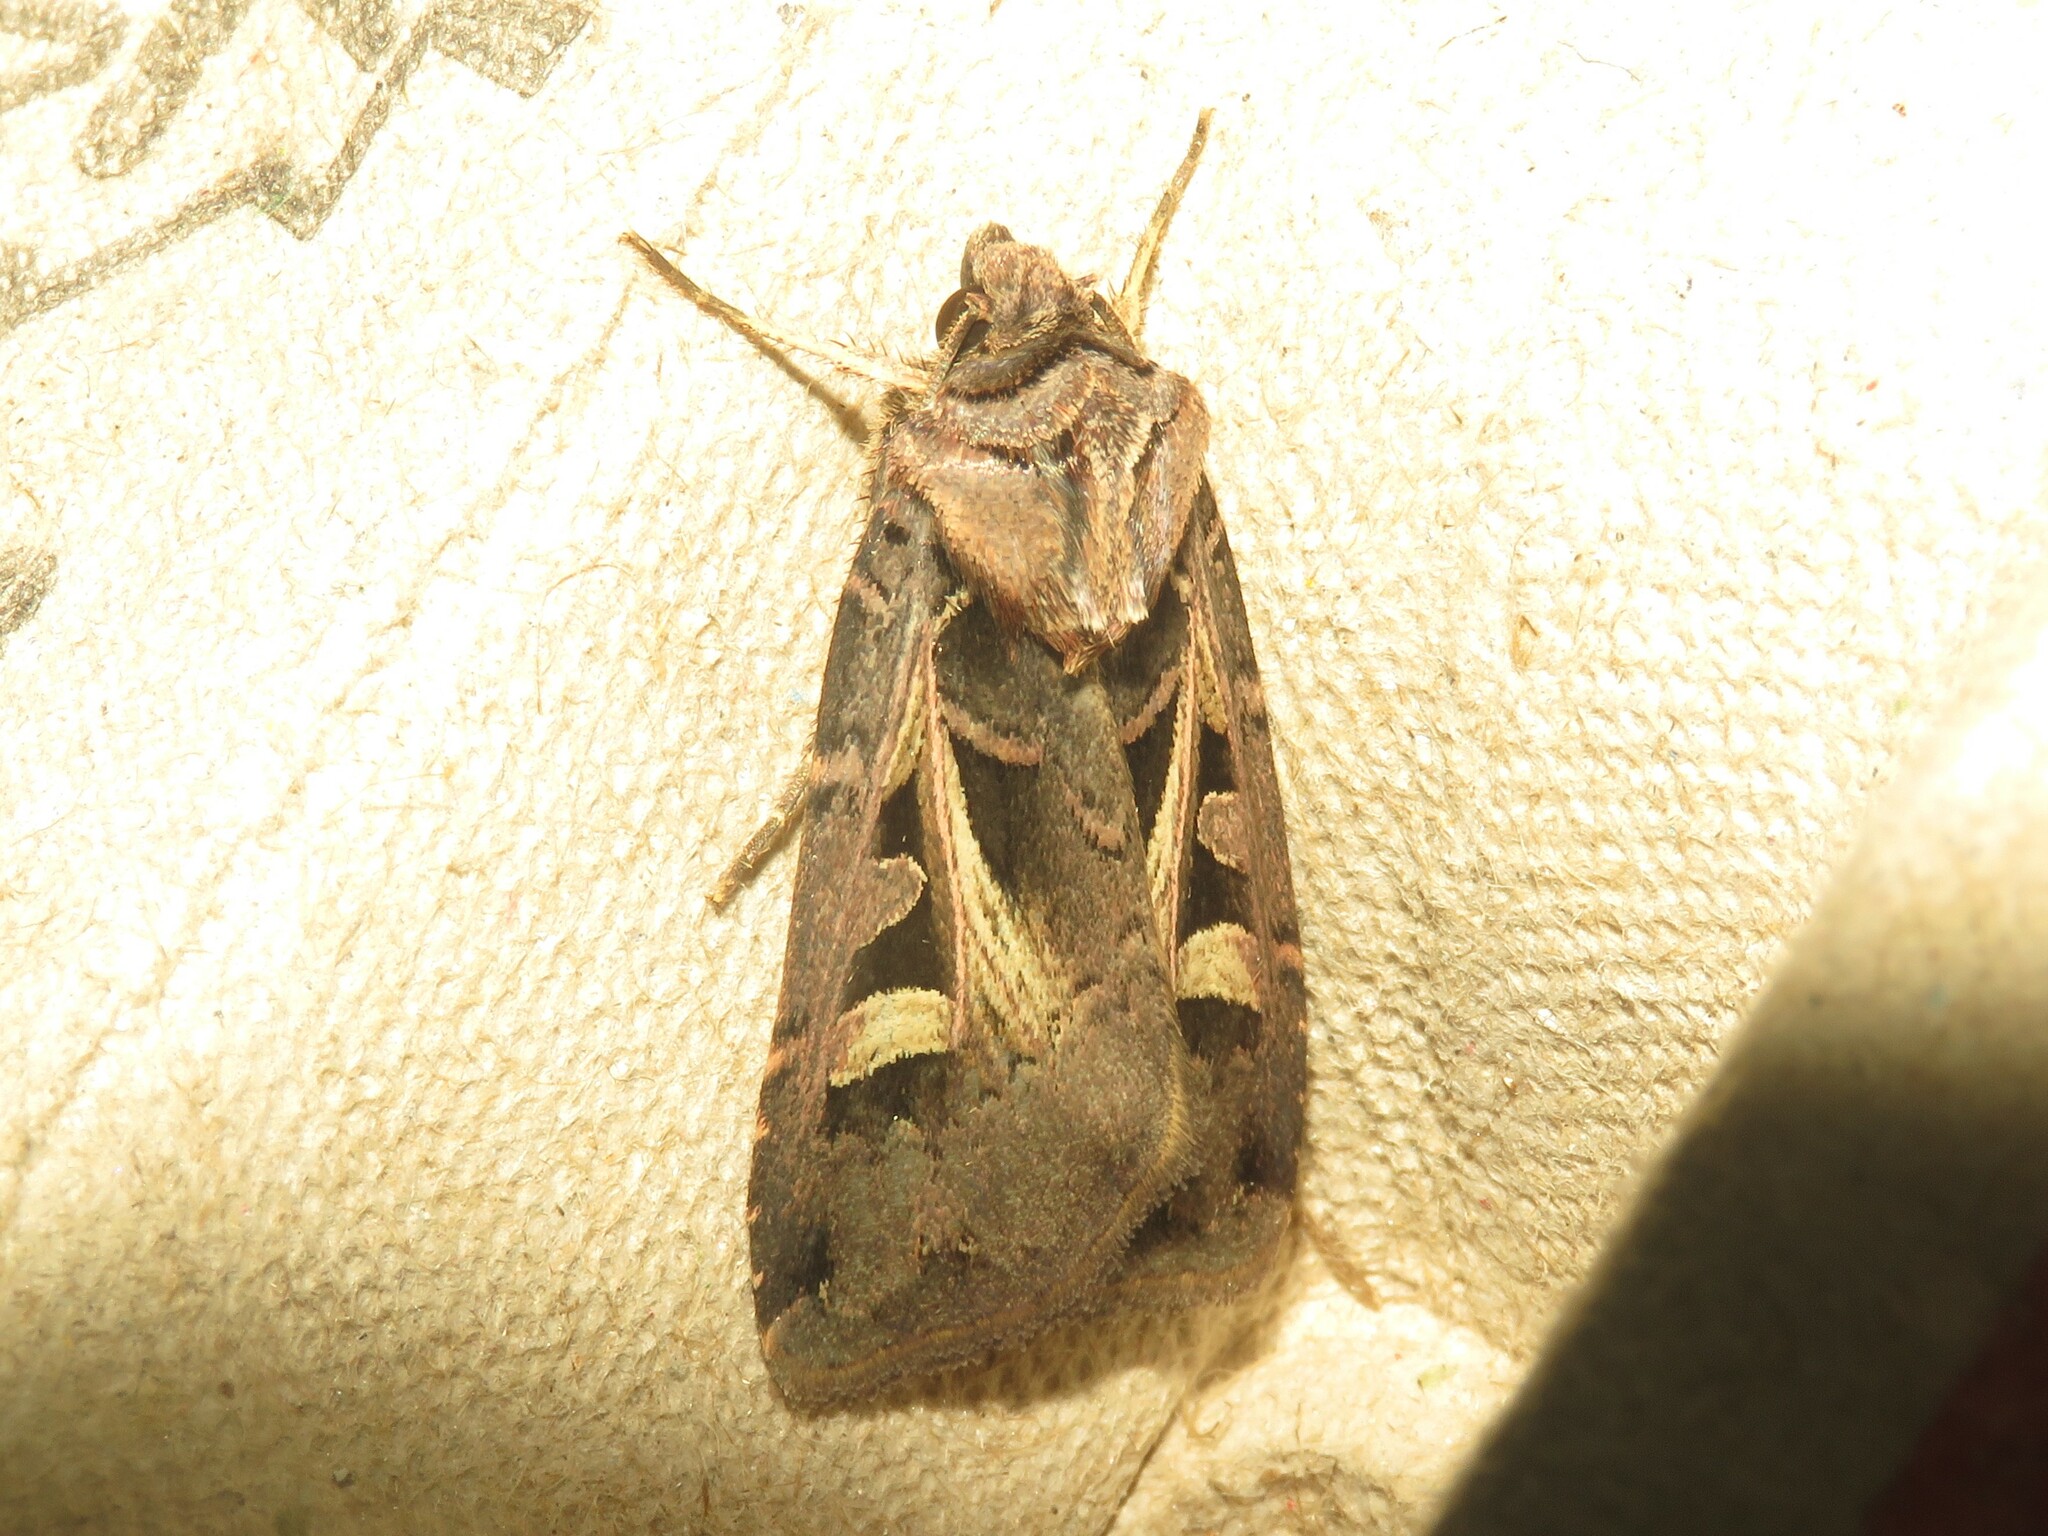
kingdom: Animalia
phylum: Arthropoda
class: Insecta
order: Lepidoptera
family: Noctuidae
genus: Feltia
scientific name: Feltia herilis
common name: Master's dart
